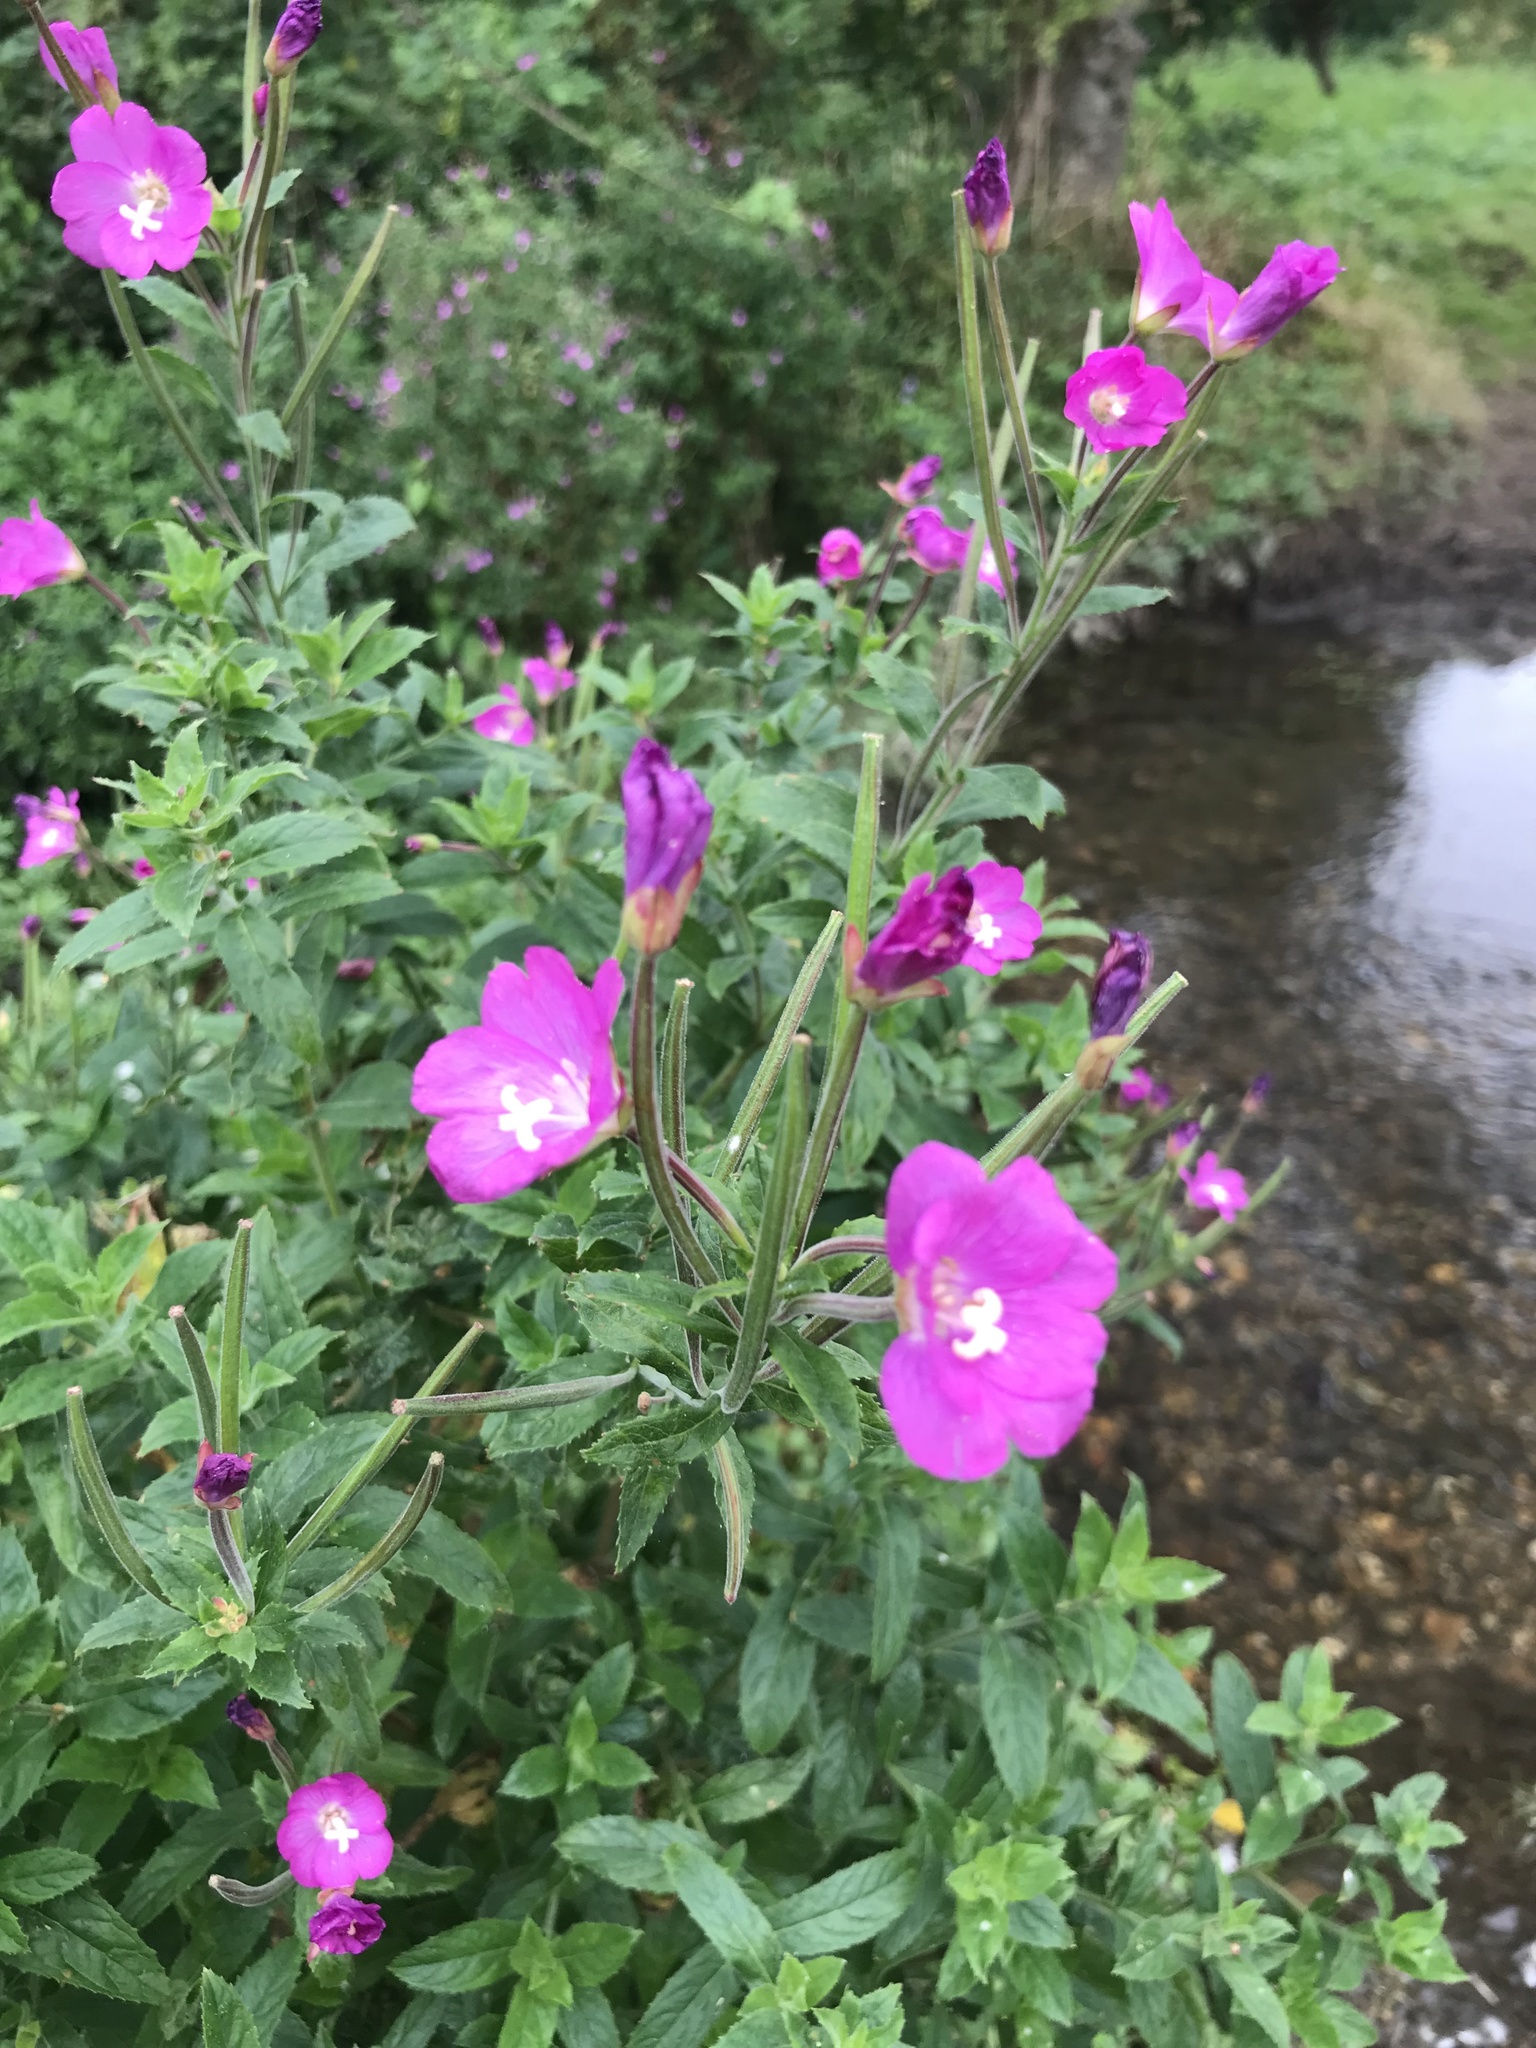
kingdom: Plantae
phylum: Tracheophyta
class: Magnoliopsida
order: Myrtales
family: Onagraceae
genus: Epilobium
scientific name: Epilobium hirsutum
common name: Great willowherb
